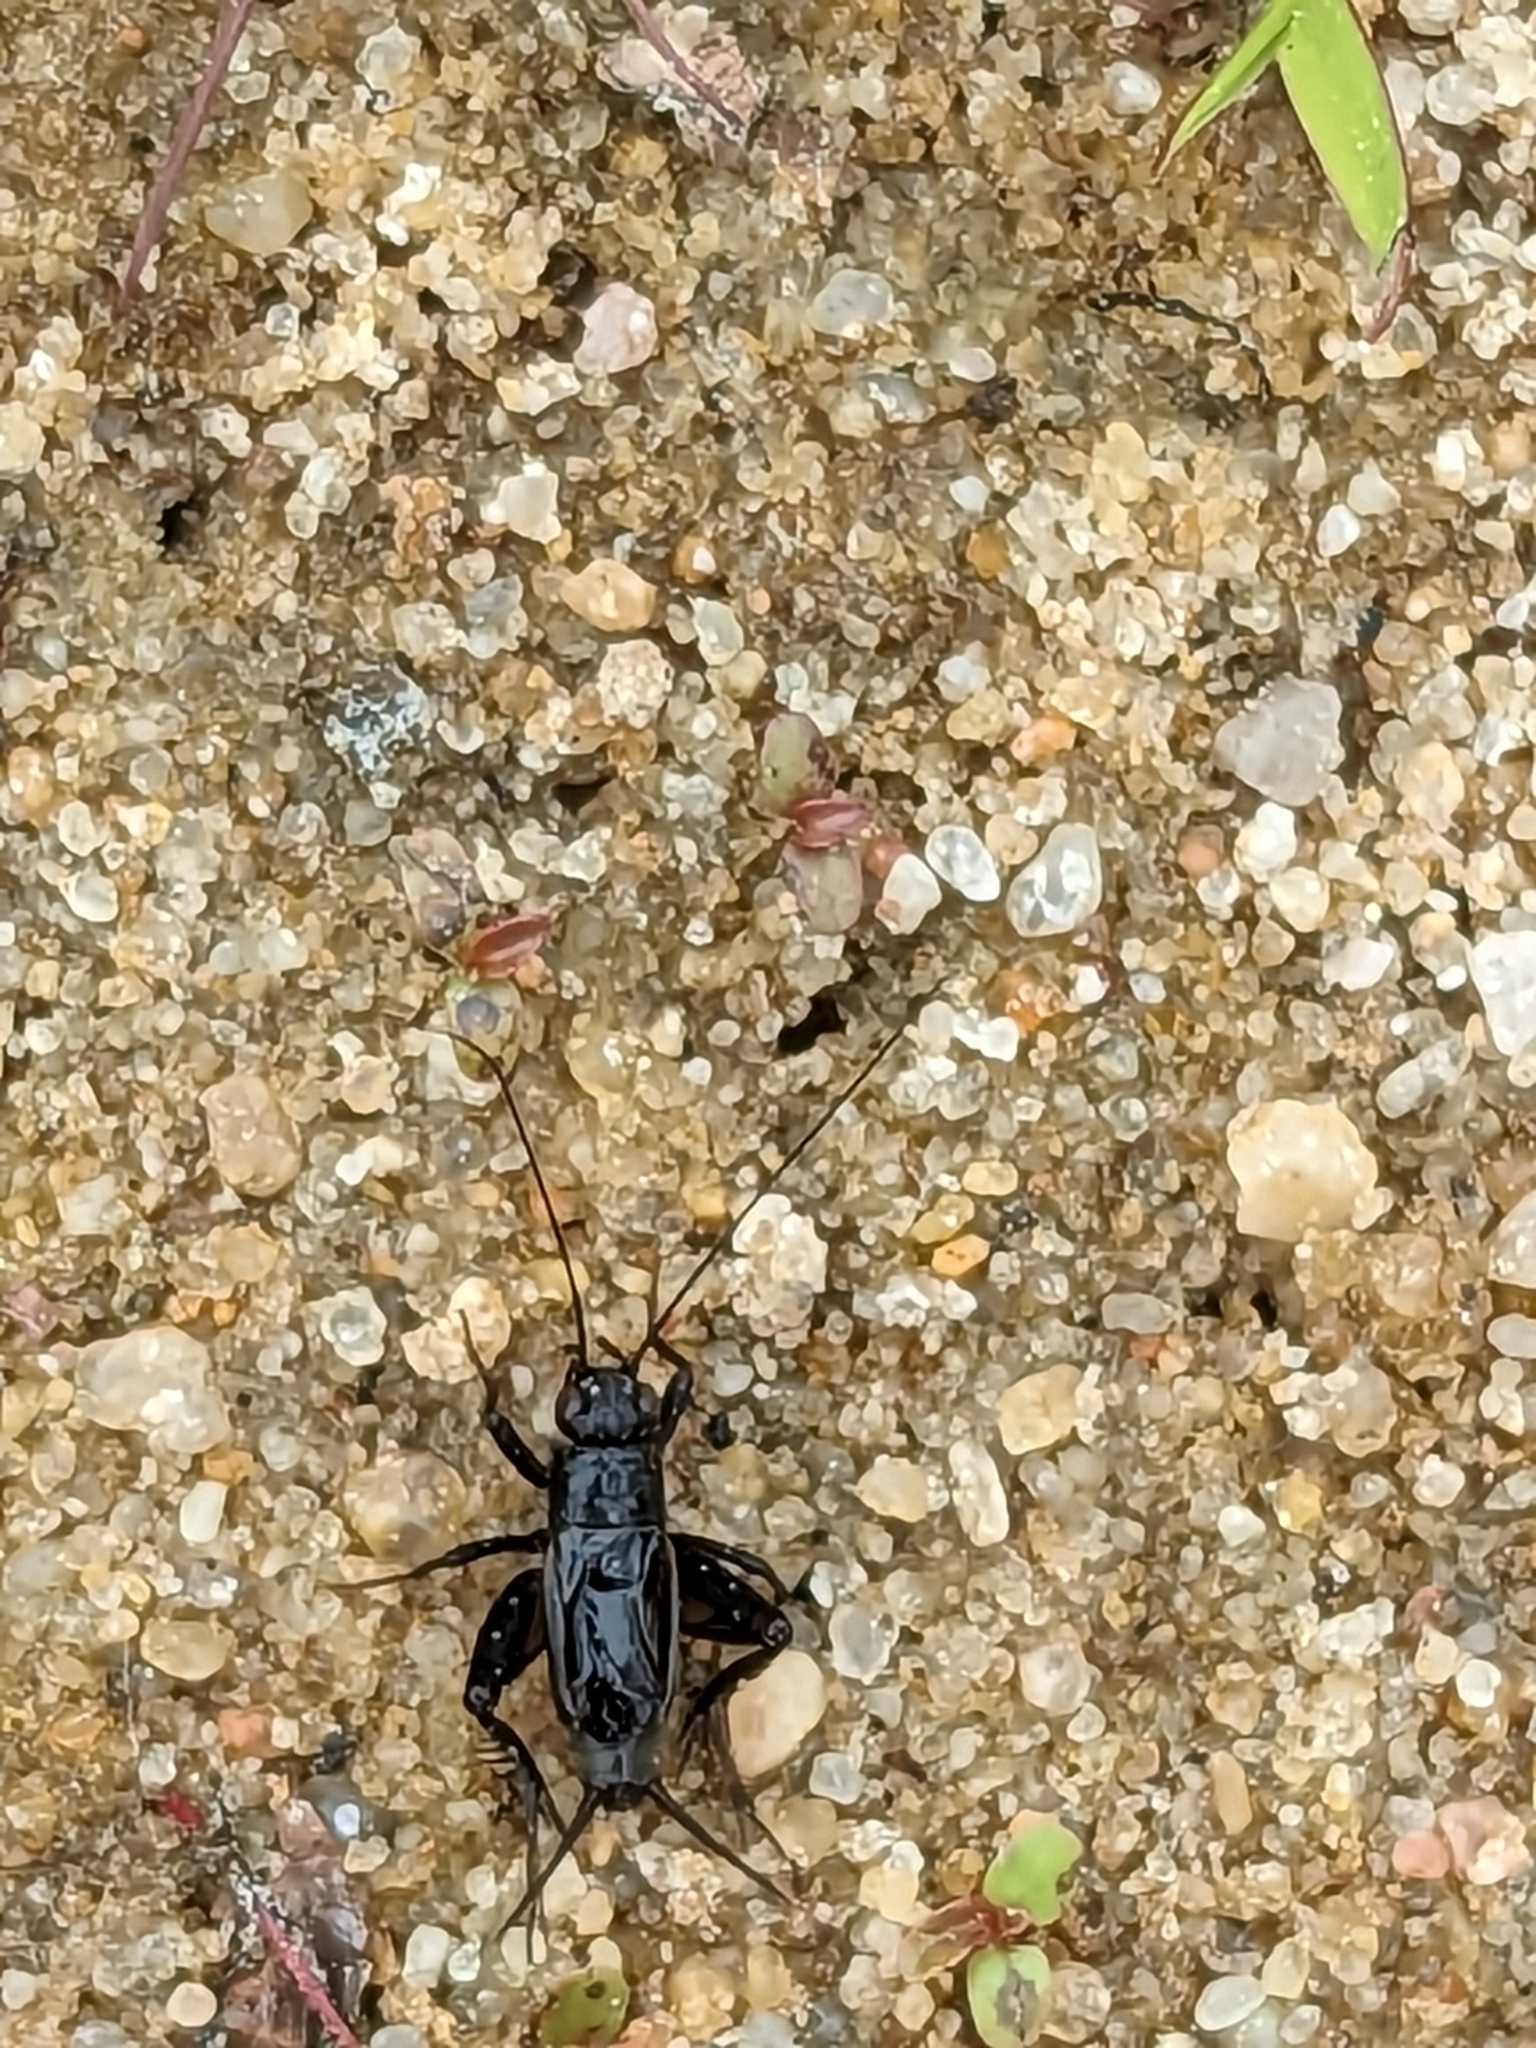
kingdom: Animalia
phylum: Arthropoda
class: Insecta
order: Orthoptera
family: Trigonidiidae
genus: Pteronemobius
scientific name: Pteronemobius heydenii
